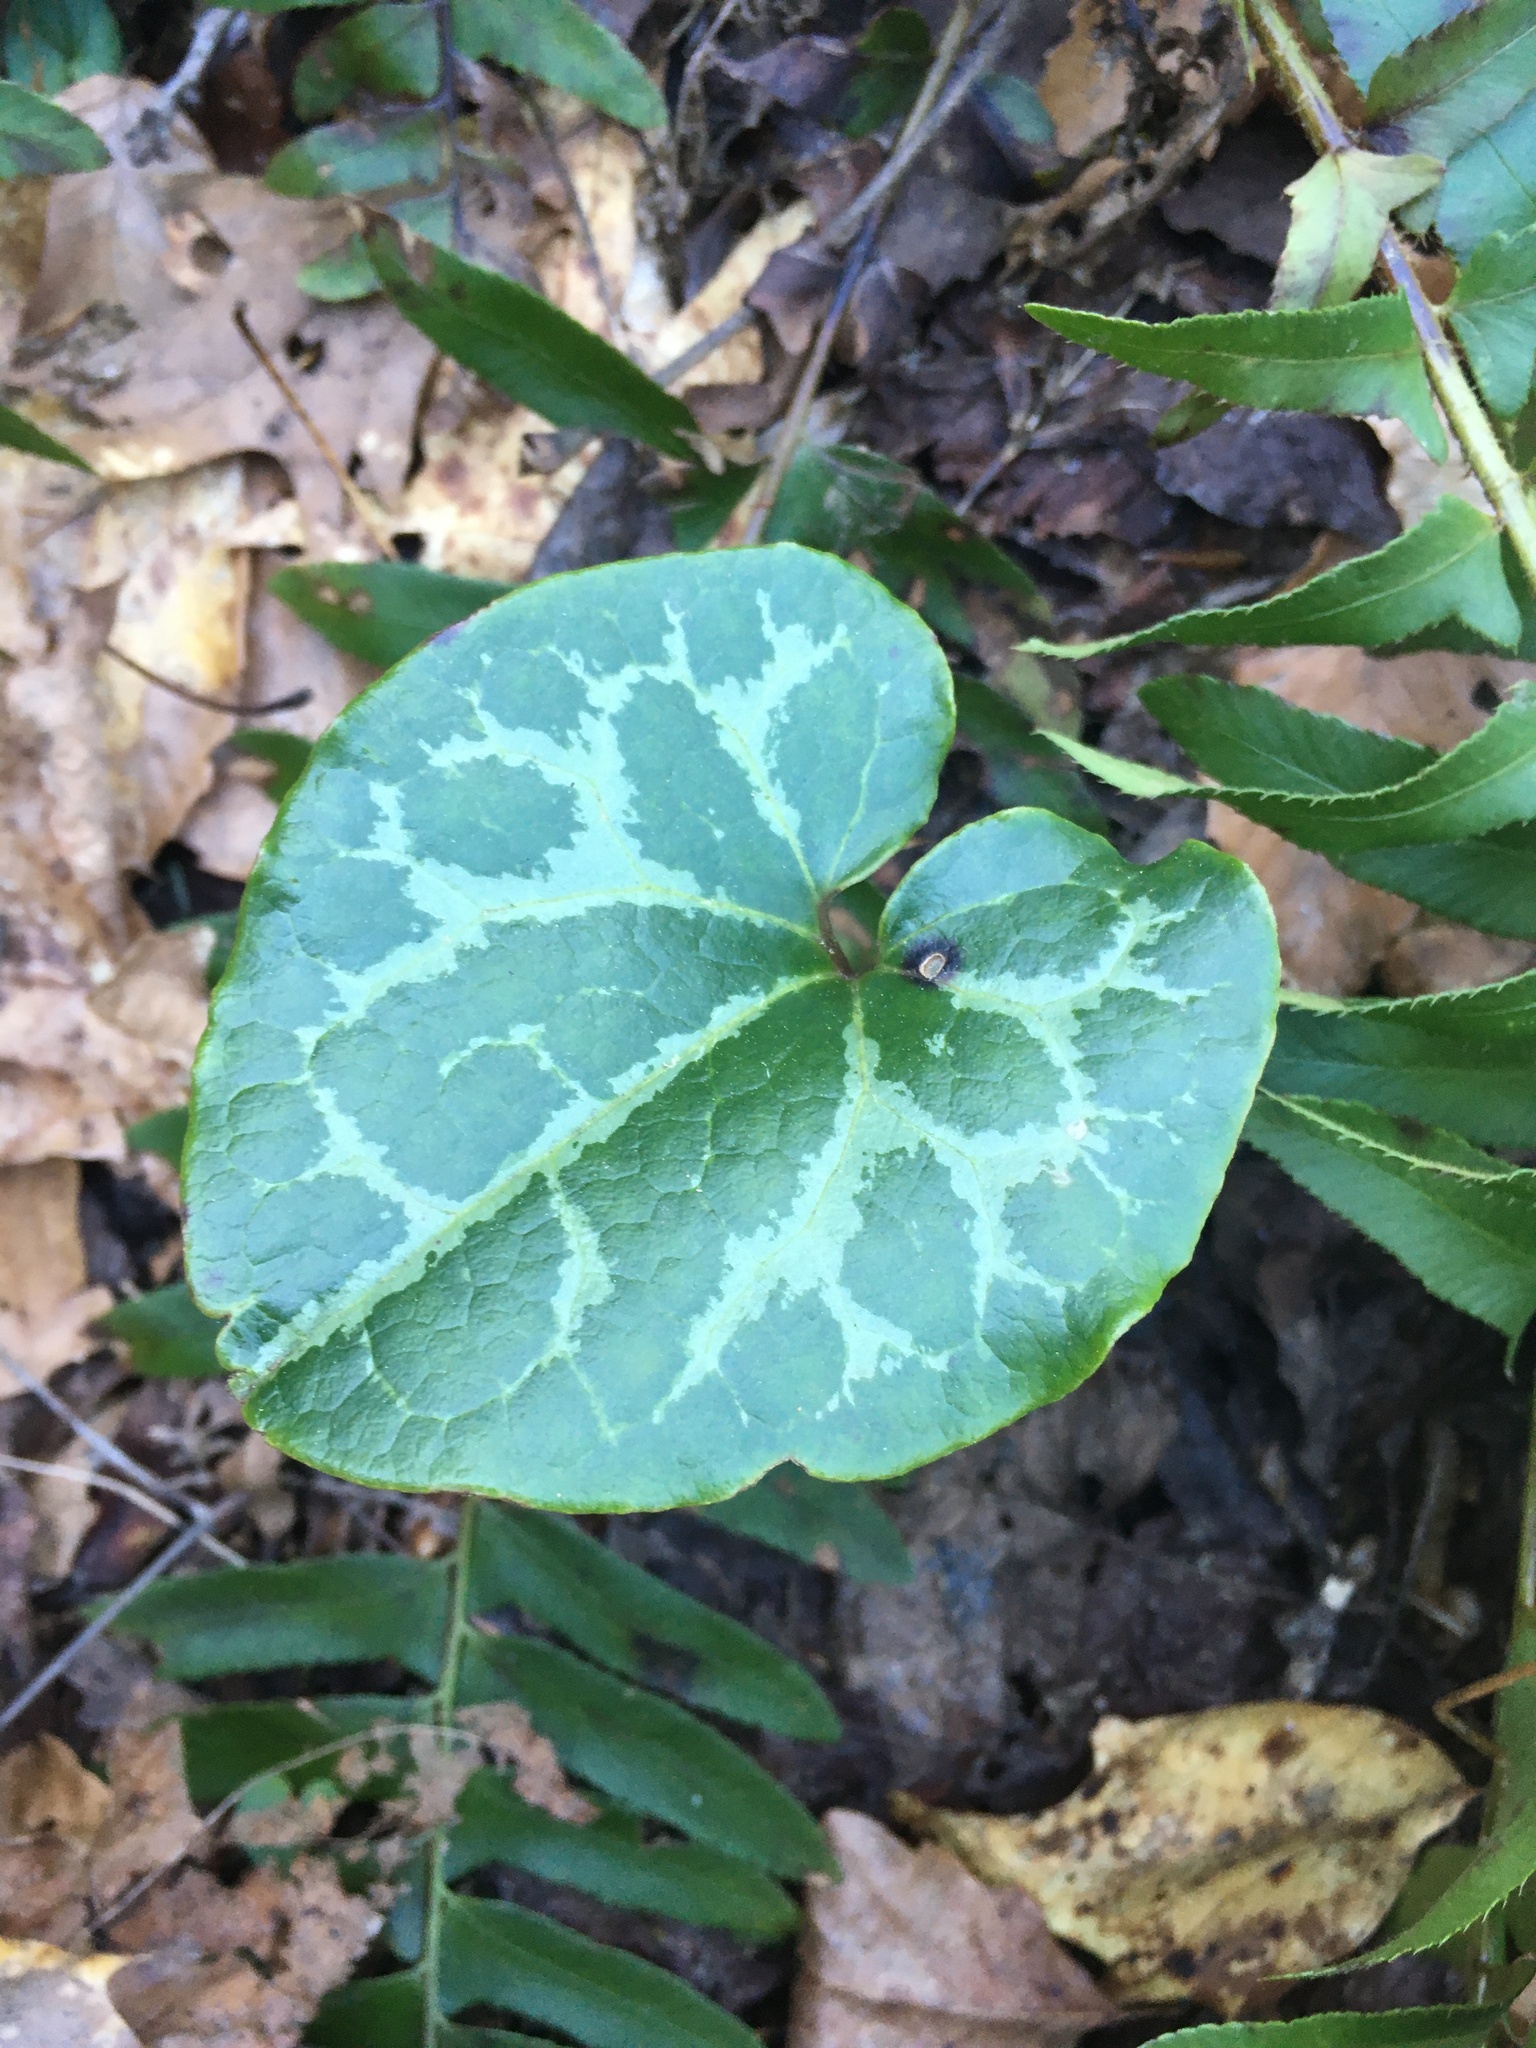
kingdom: Plantae
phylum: Tracheophyta
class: Magnoliopsida
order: Piperales
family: Aristolochiaceae
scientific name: Aristolochiaceae
